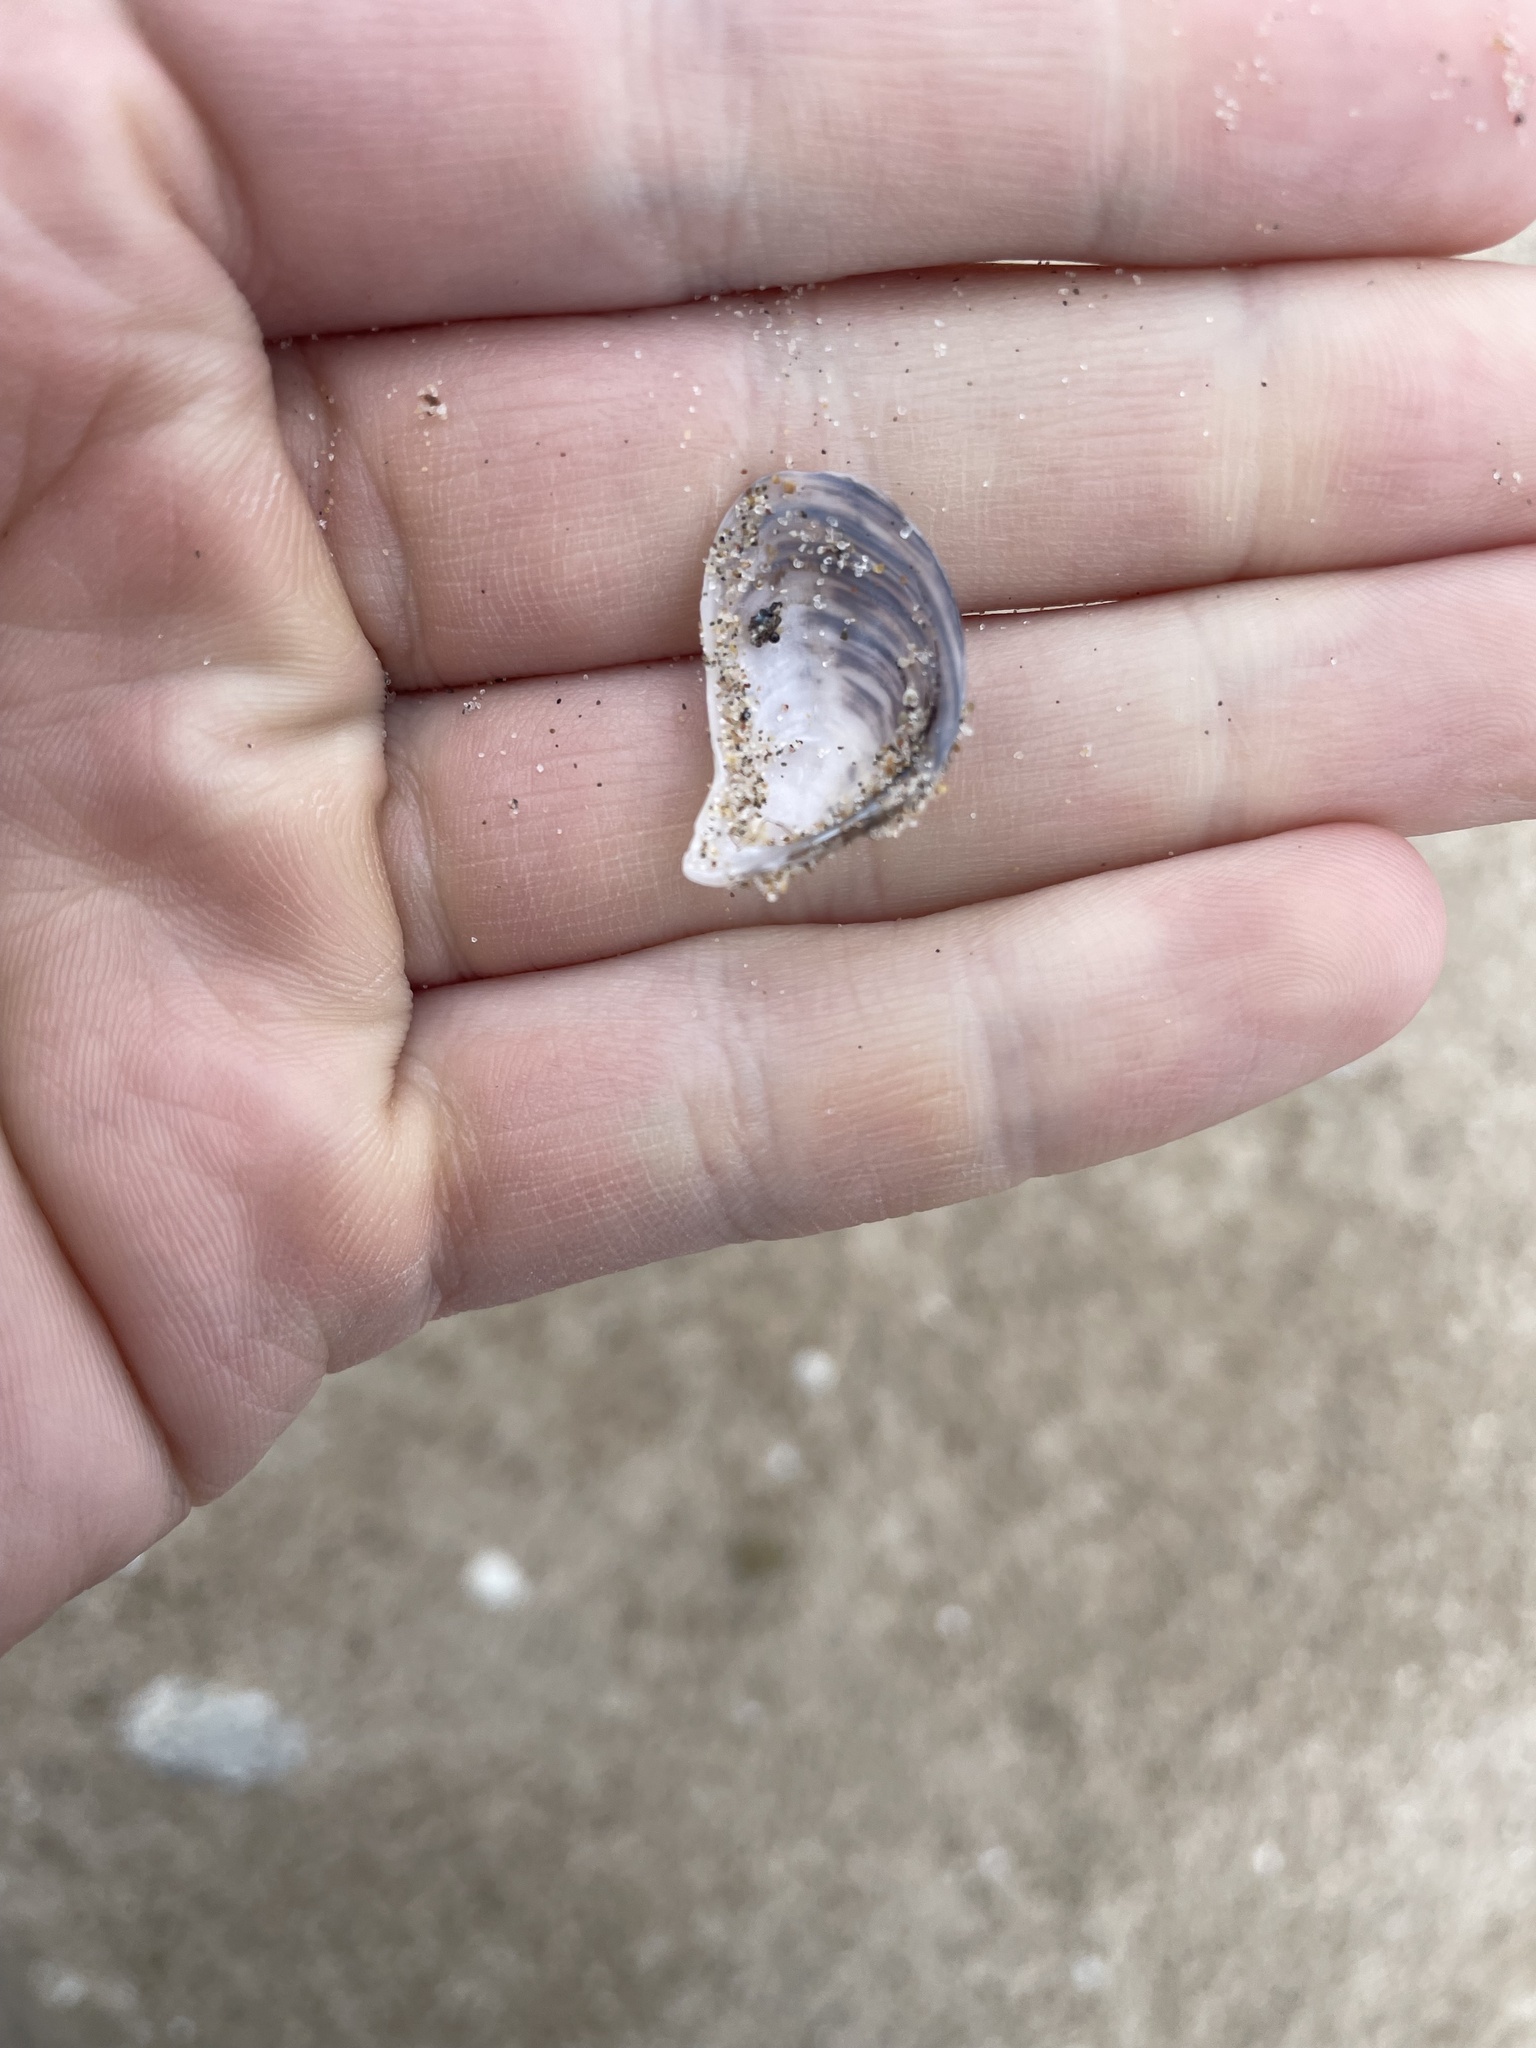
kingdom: Animalia
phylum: Mollusca
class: Bivalvia
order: Myida
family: Dreissenidae
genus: Dreissena
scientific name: Dreissena bugensis
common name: Quagga mussel
